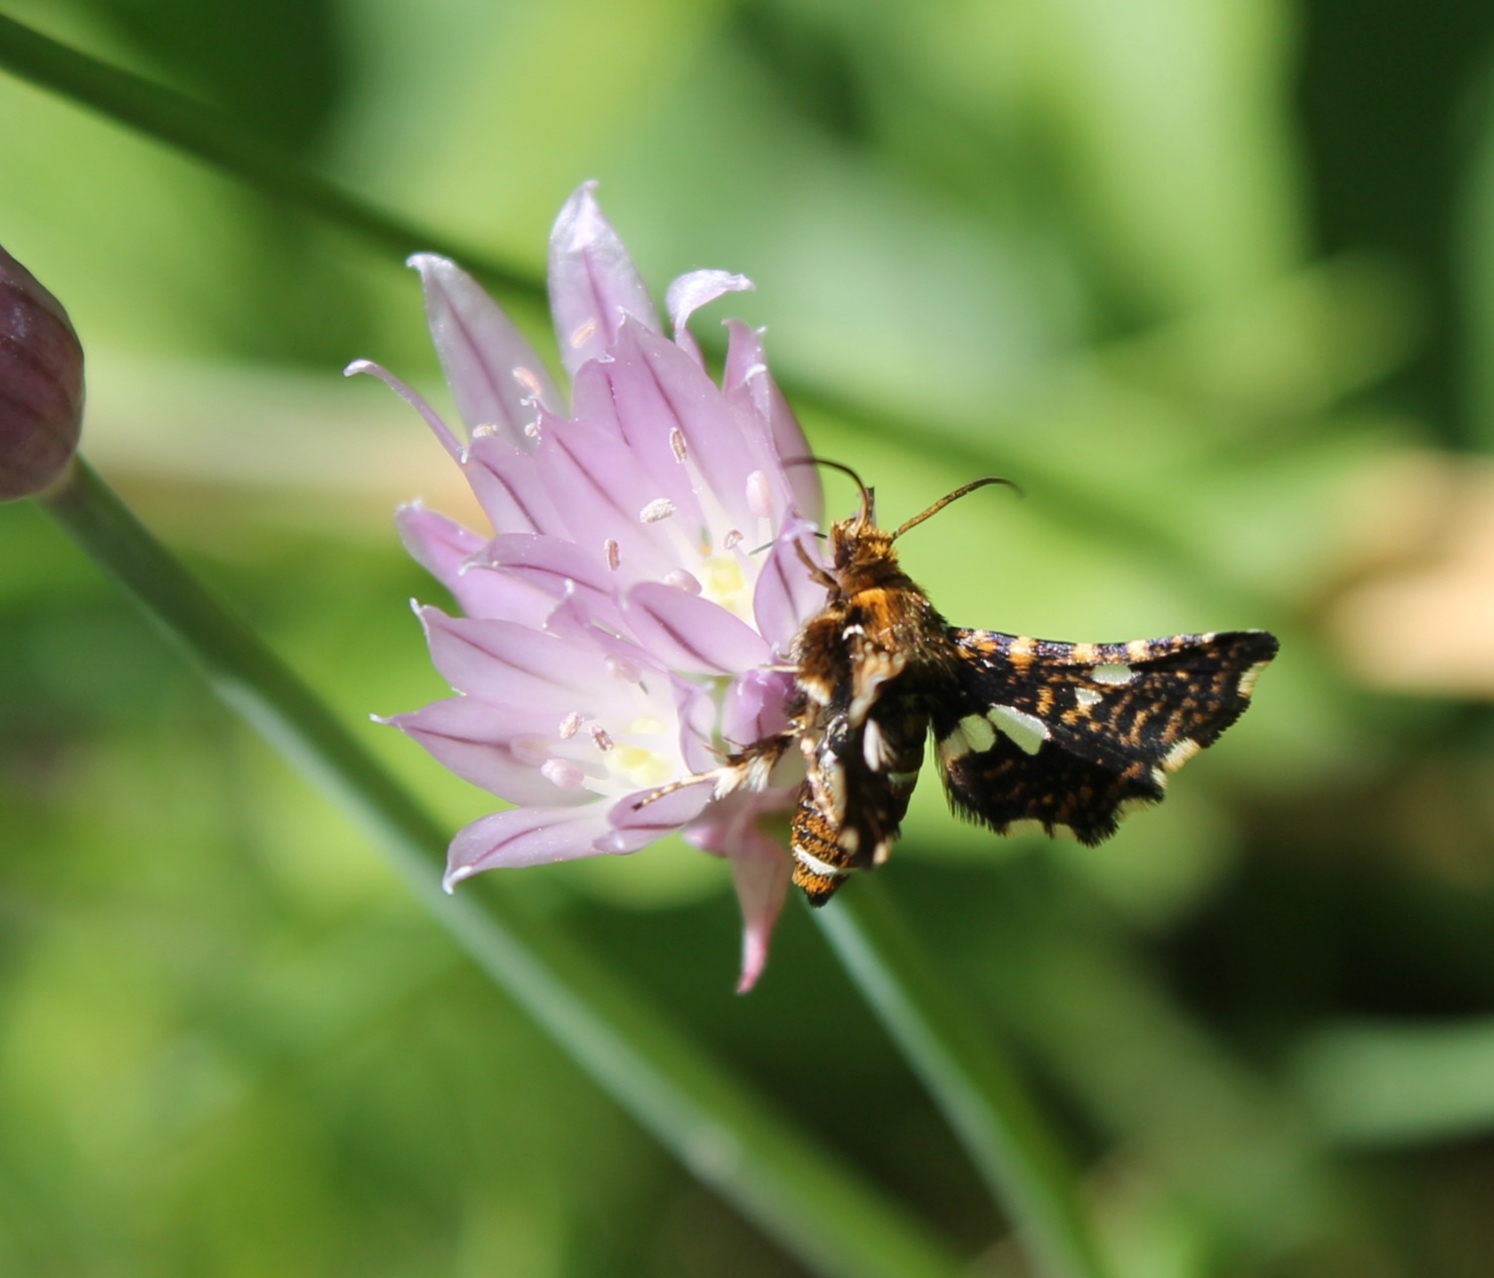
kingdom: Animalia
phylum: Arthropoda
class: Insecta
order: Lepidoptera
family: Thyrididae
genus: Thyris
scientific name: Thyris fenestrella
